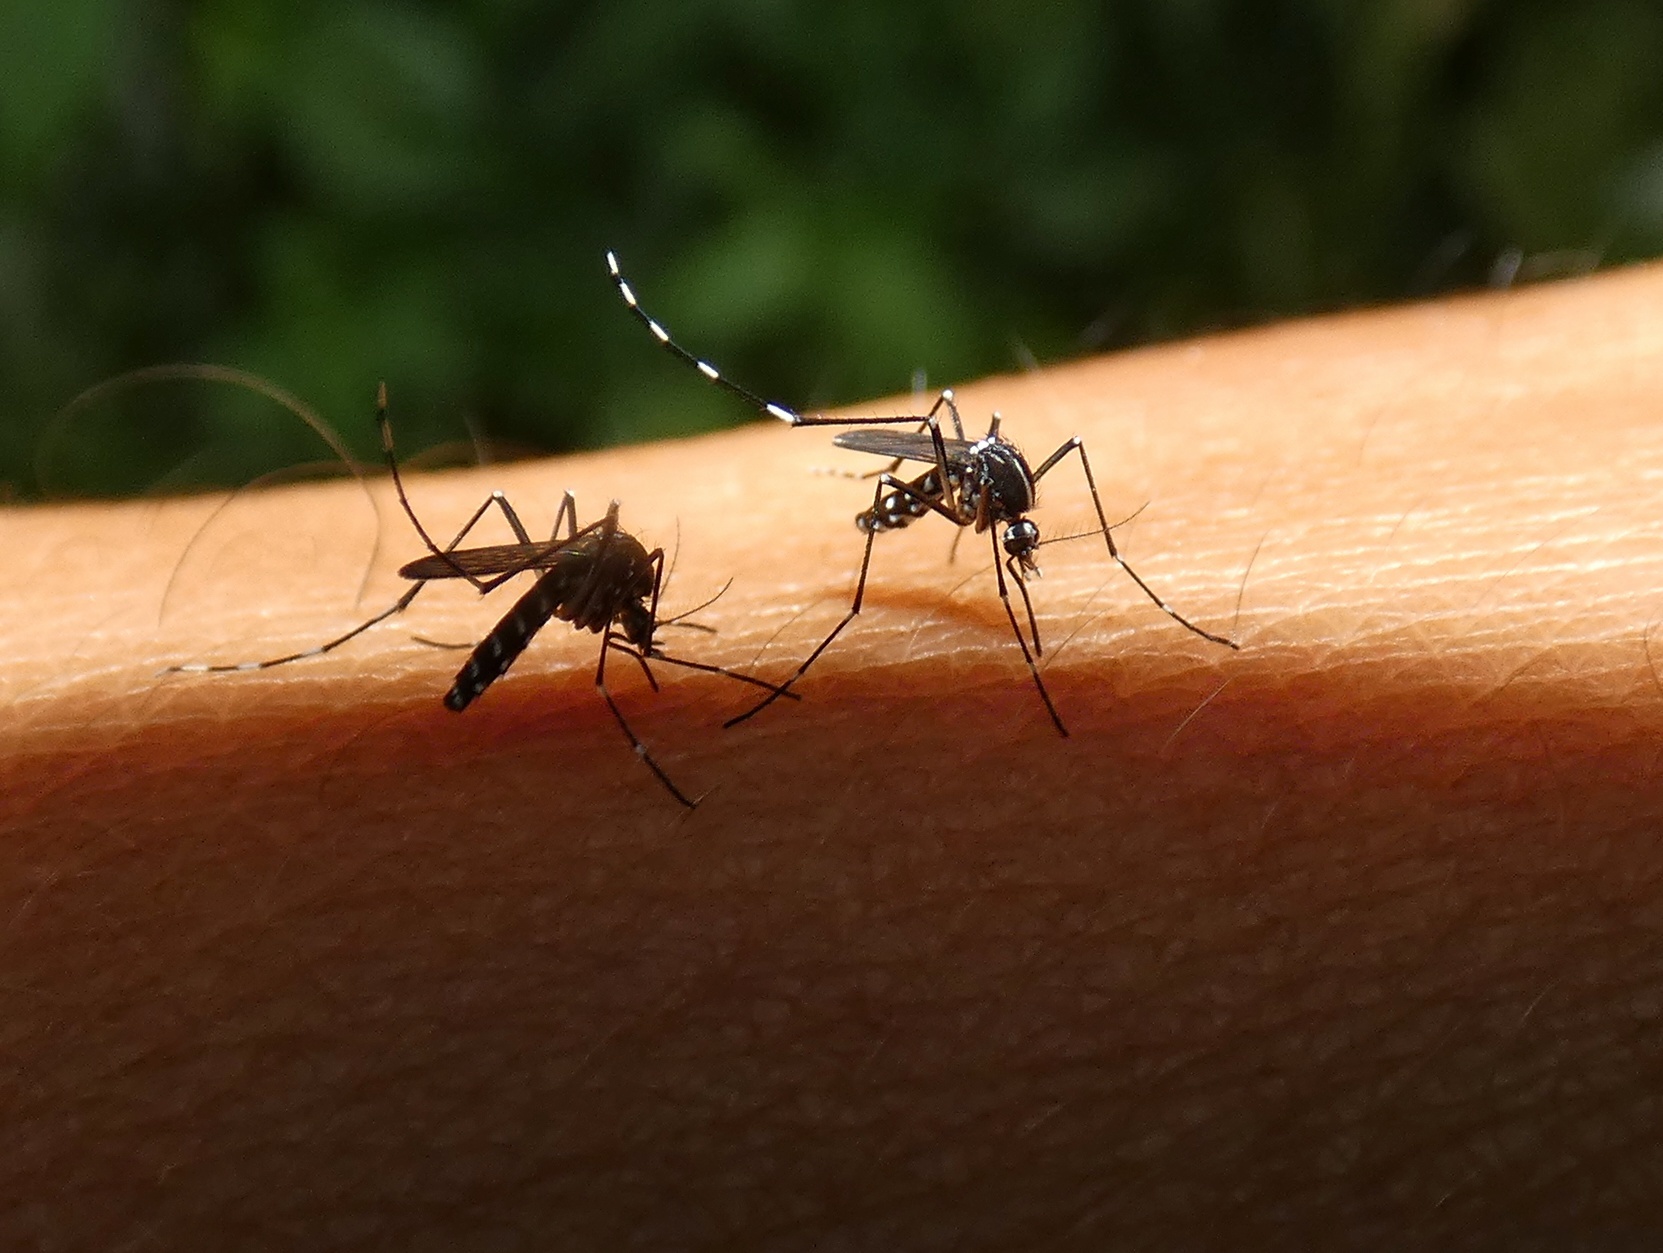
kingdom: Animalia
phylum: Arthropoda
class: Insecta
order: Diptera
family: Culicidae
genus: Aedes
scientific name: Aedes albopictus
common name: Tiger mosquito
